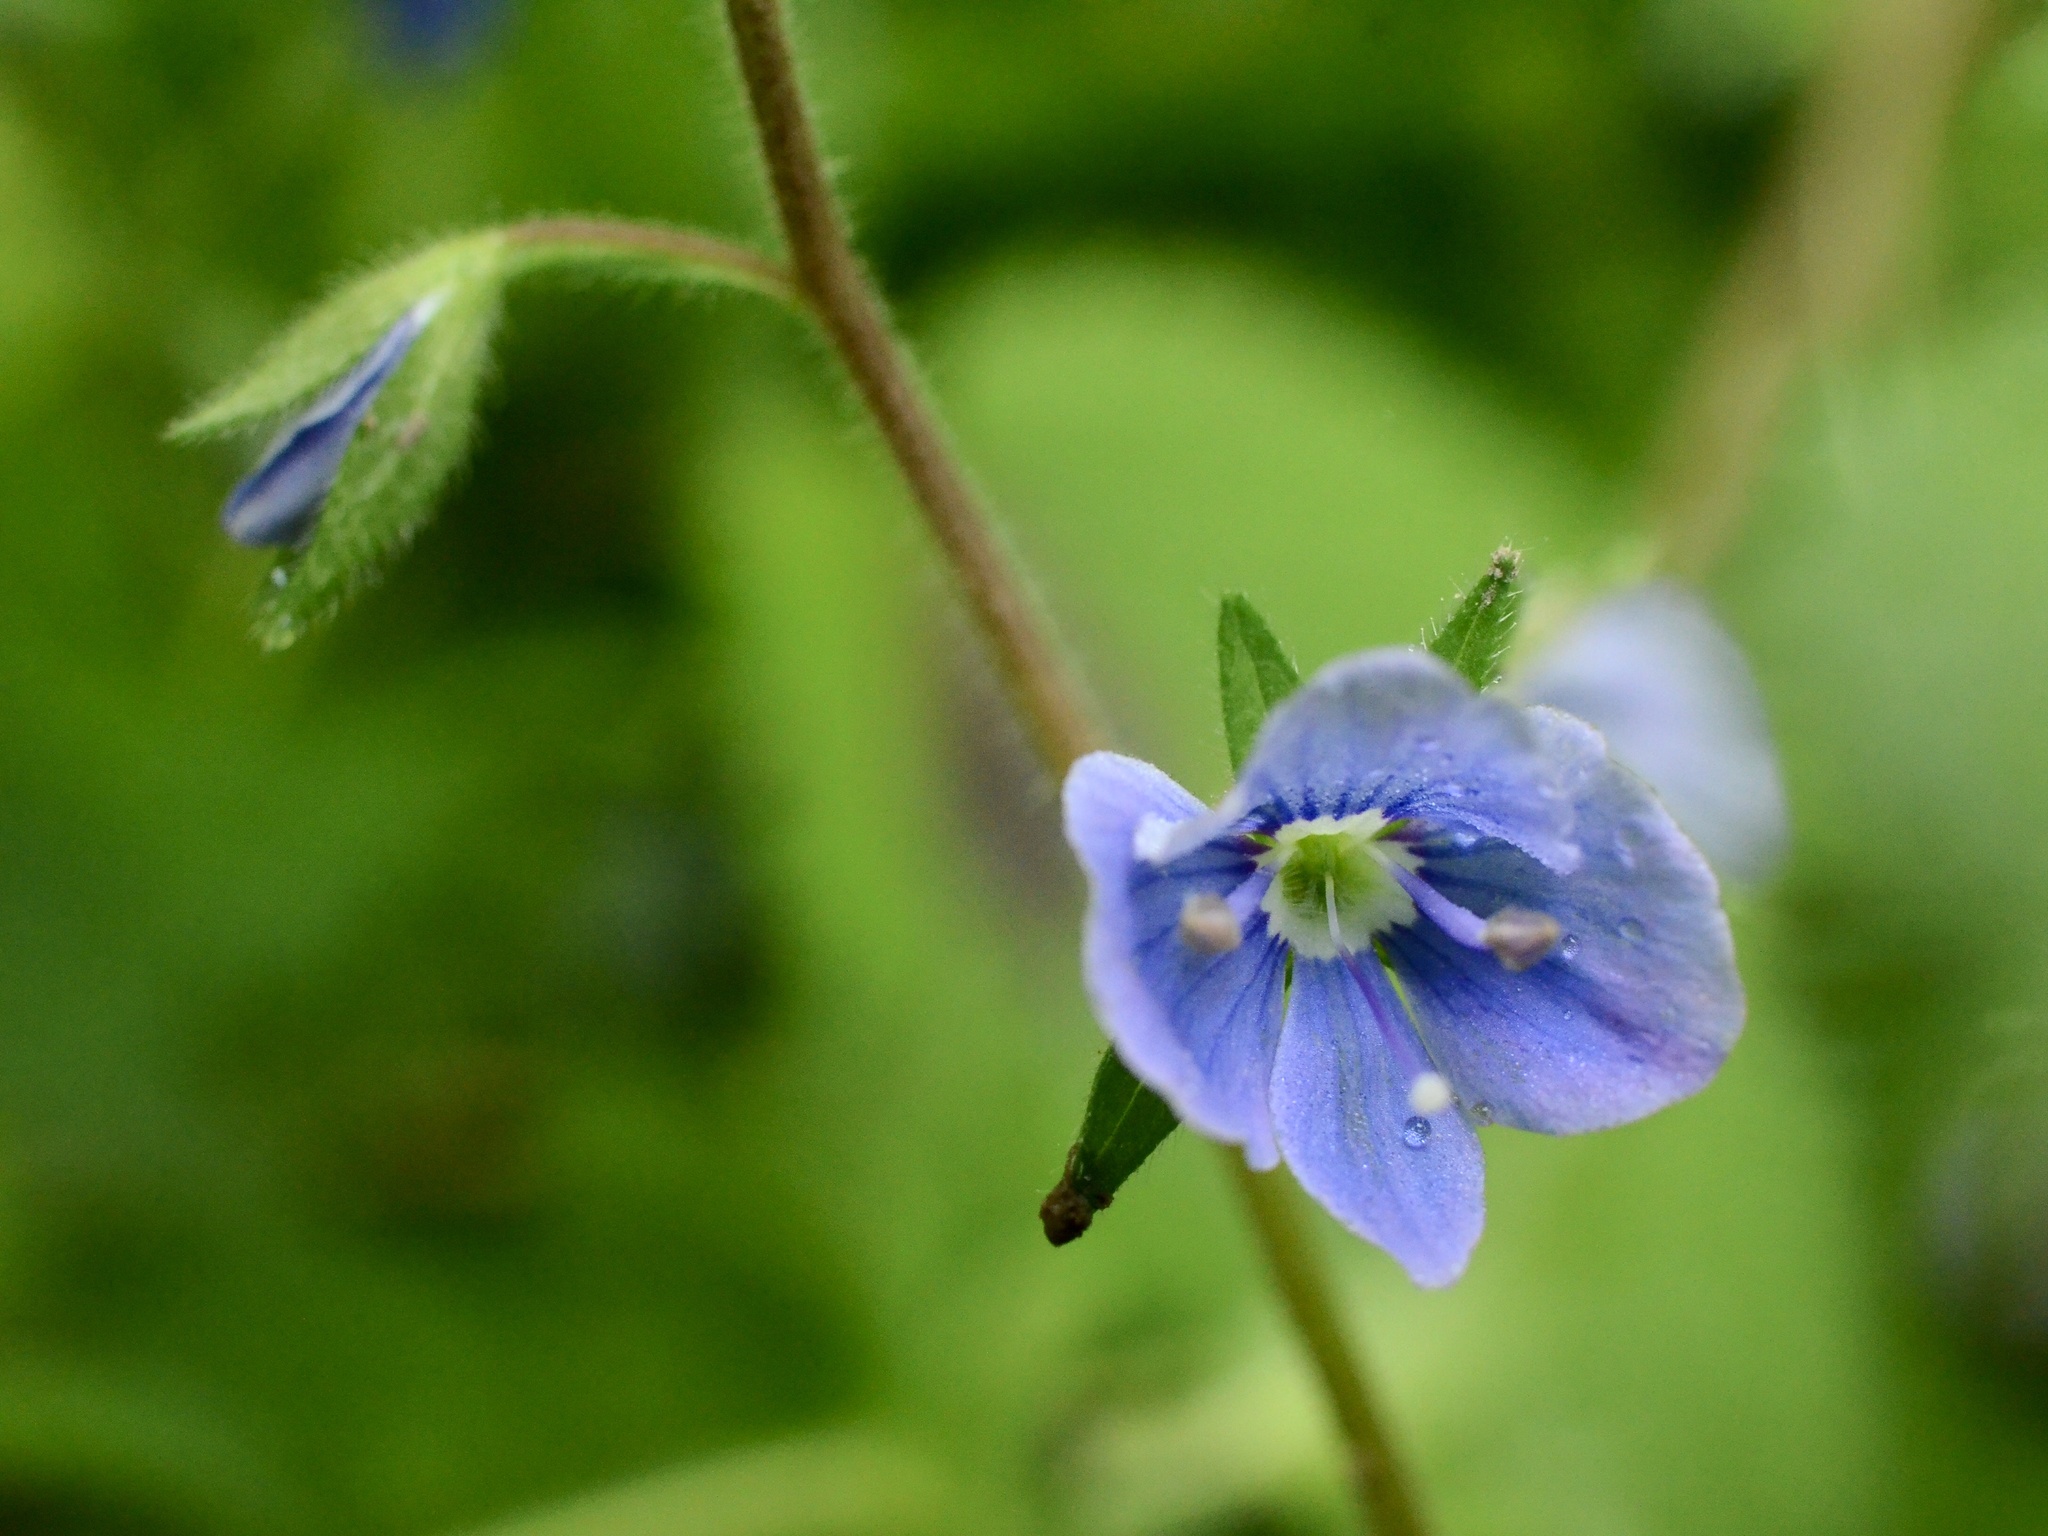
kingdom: Plantae
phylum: Tracheophyta
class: Magnoliopsida
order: Lamiales
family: Plantaginaceae
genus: Veronica
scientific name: Veronica chamaedrys
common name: Germander speedwell
